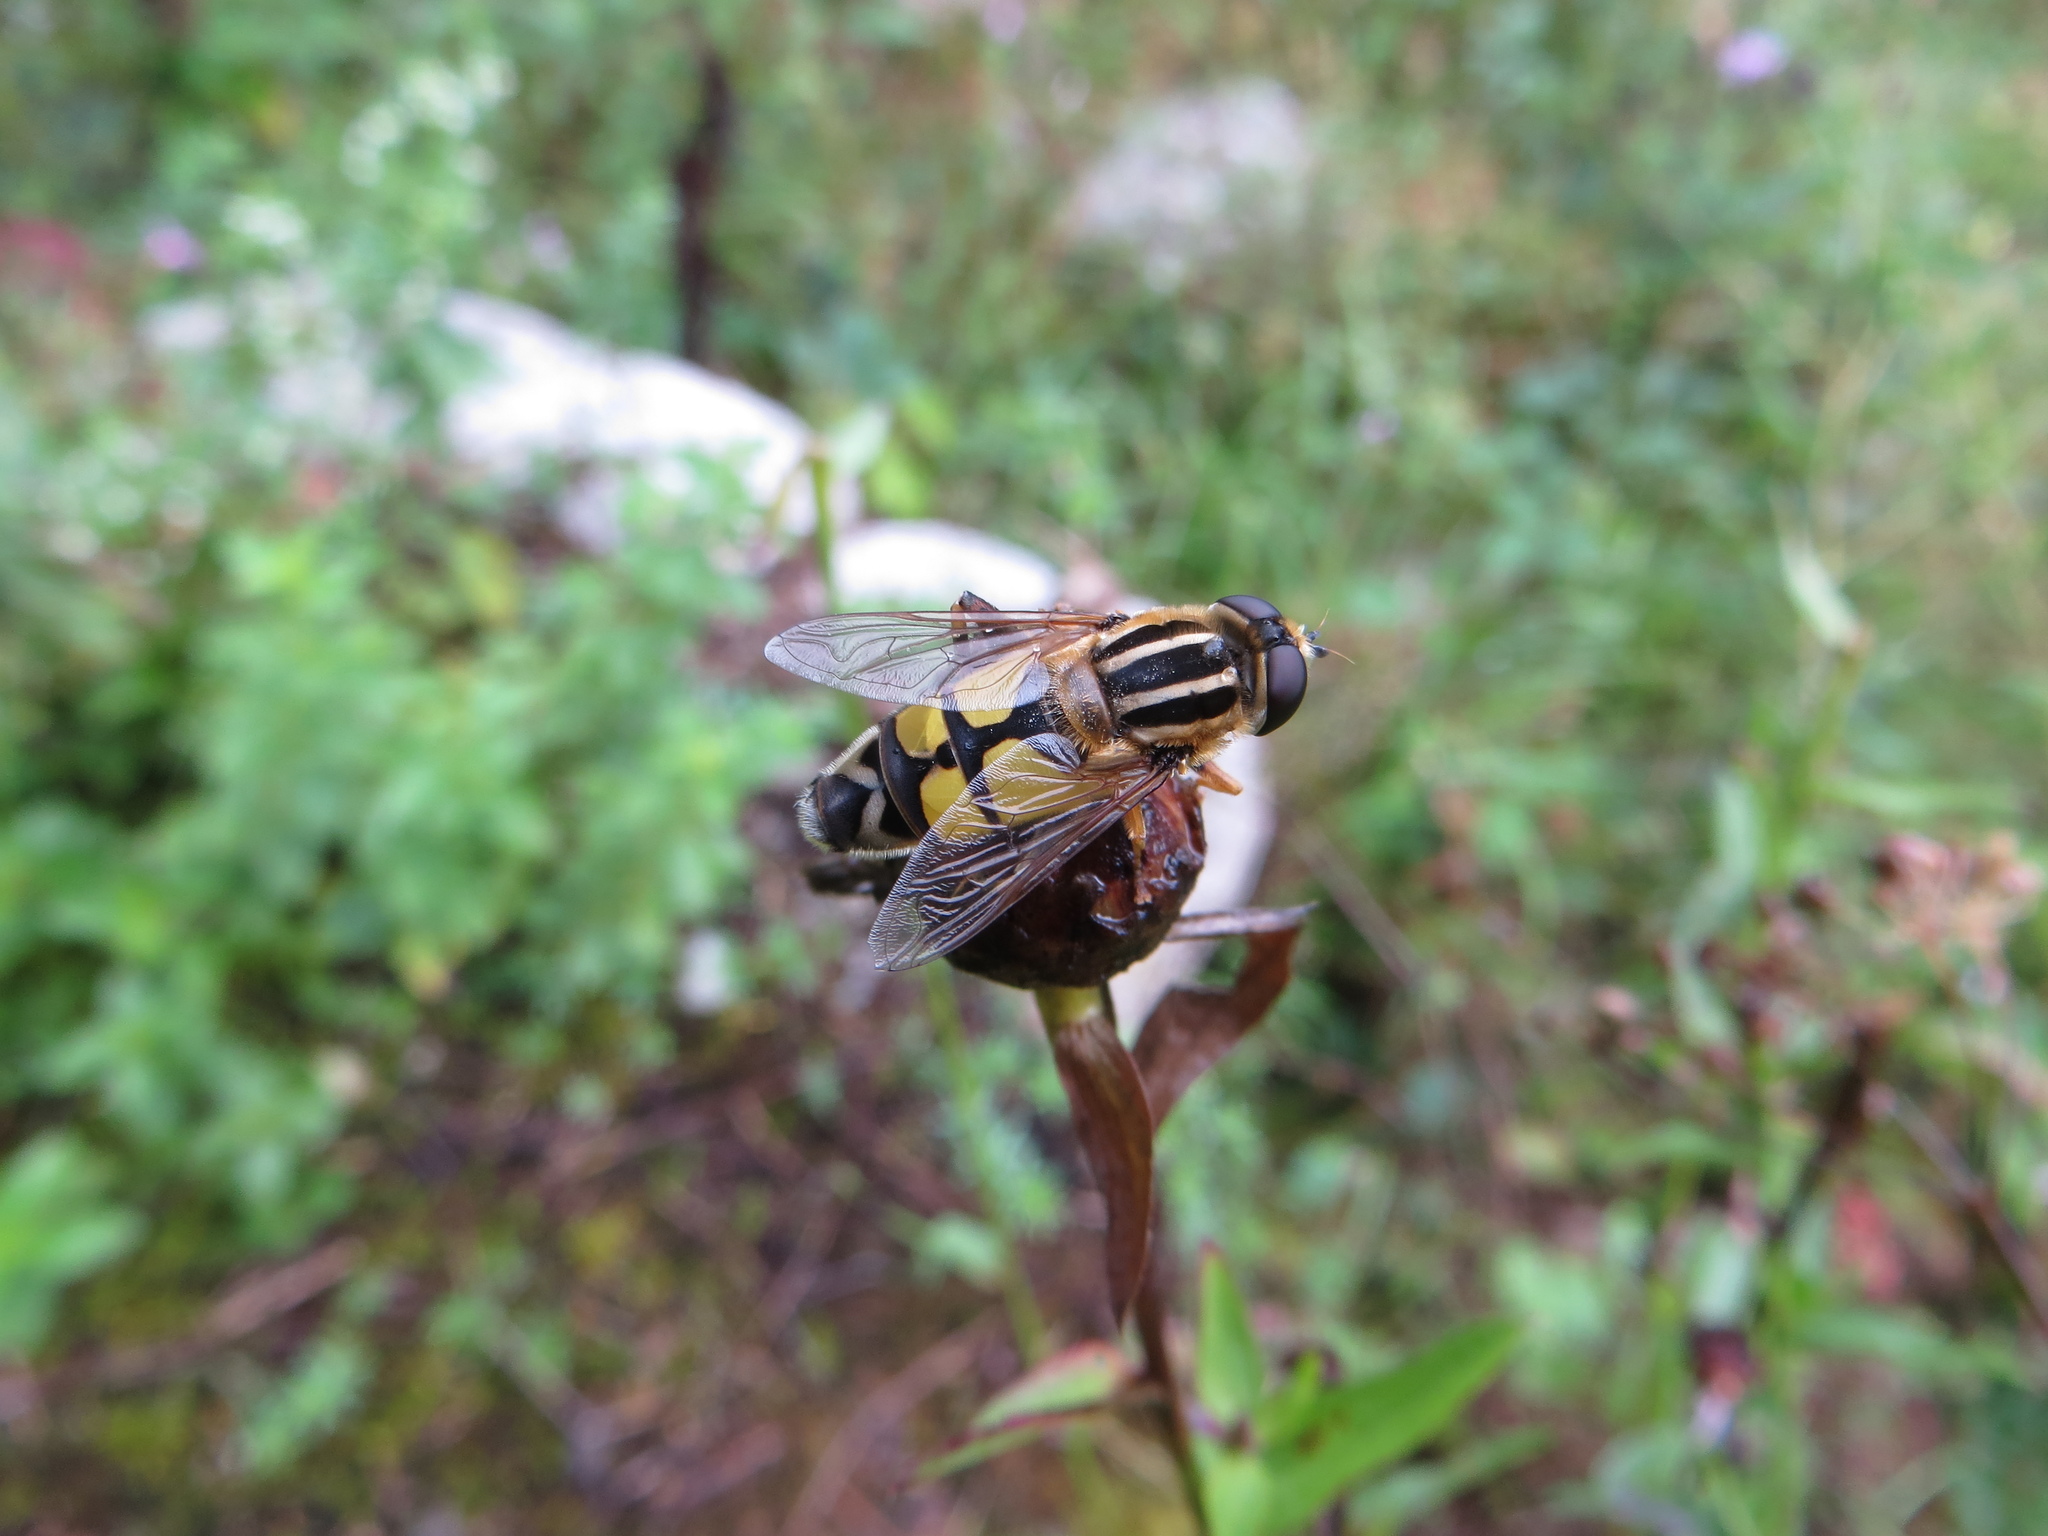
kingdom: Animalia
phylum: Arthropoda
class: Insecta
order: Diptera
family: Syrphidae
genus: Helophilus
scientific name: Helophilus trivittatus
